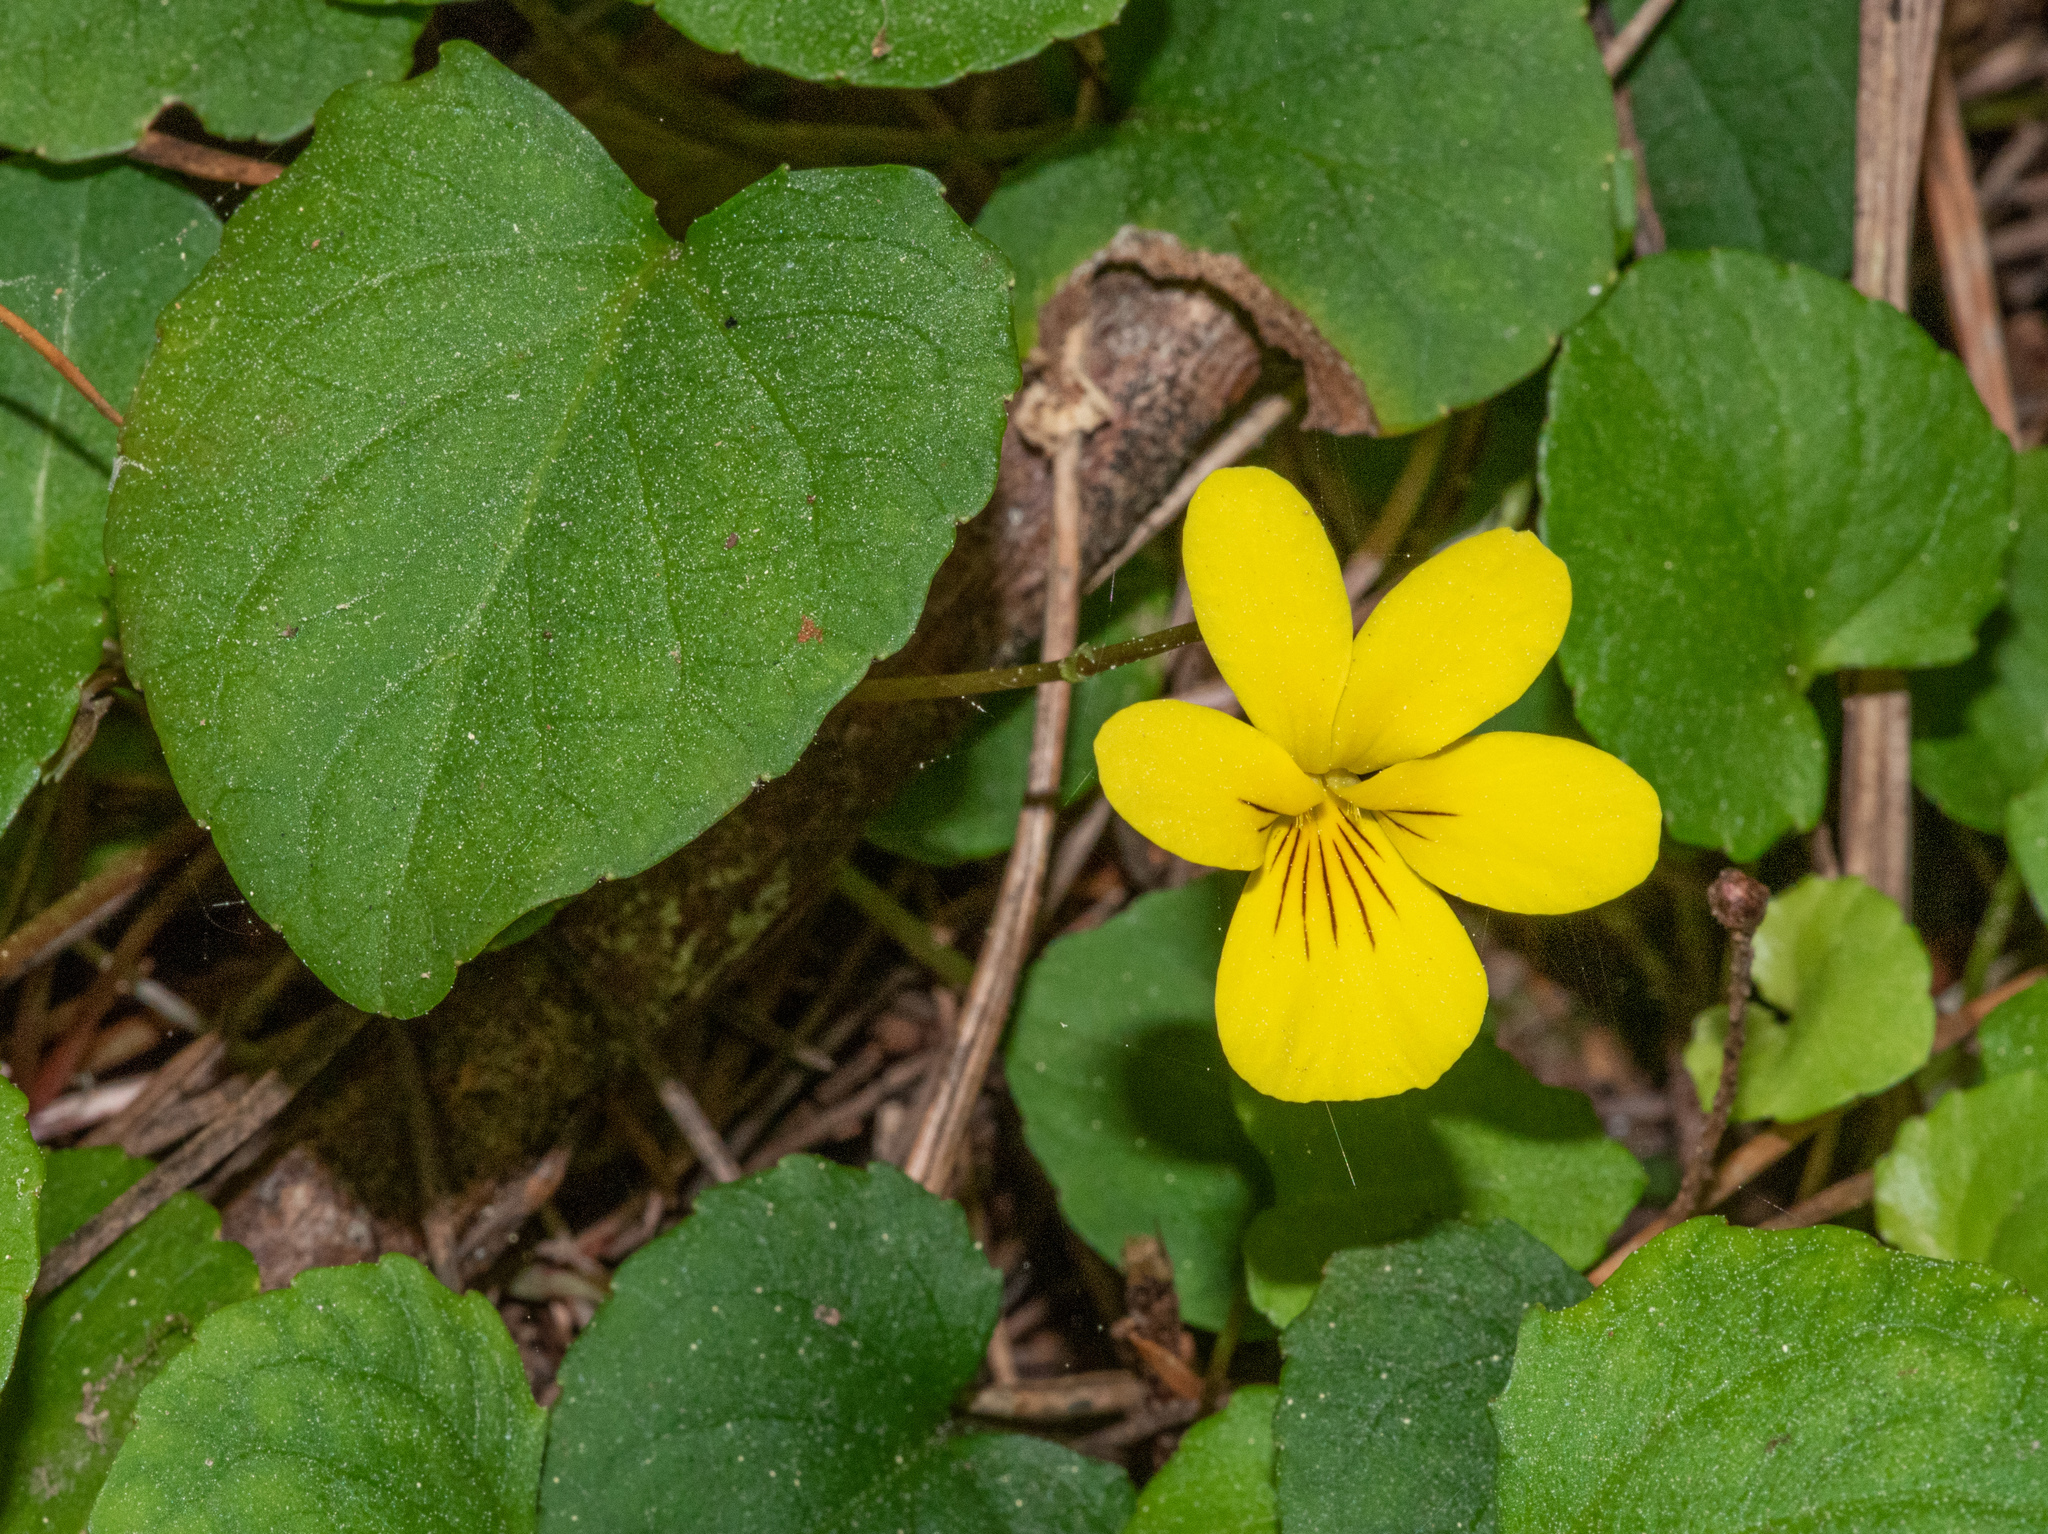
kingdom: Plantae
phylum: Tracheophyta
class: Magnoliopsida
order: Malpighiales
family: Violaceae
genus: Viola
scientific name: Viola sempervirens
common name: Evergreen violet
